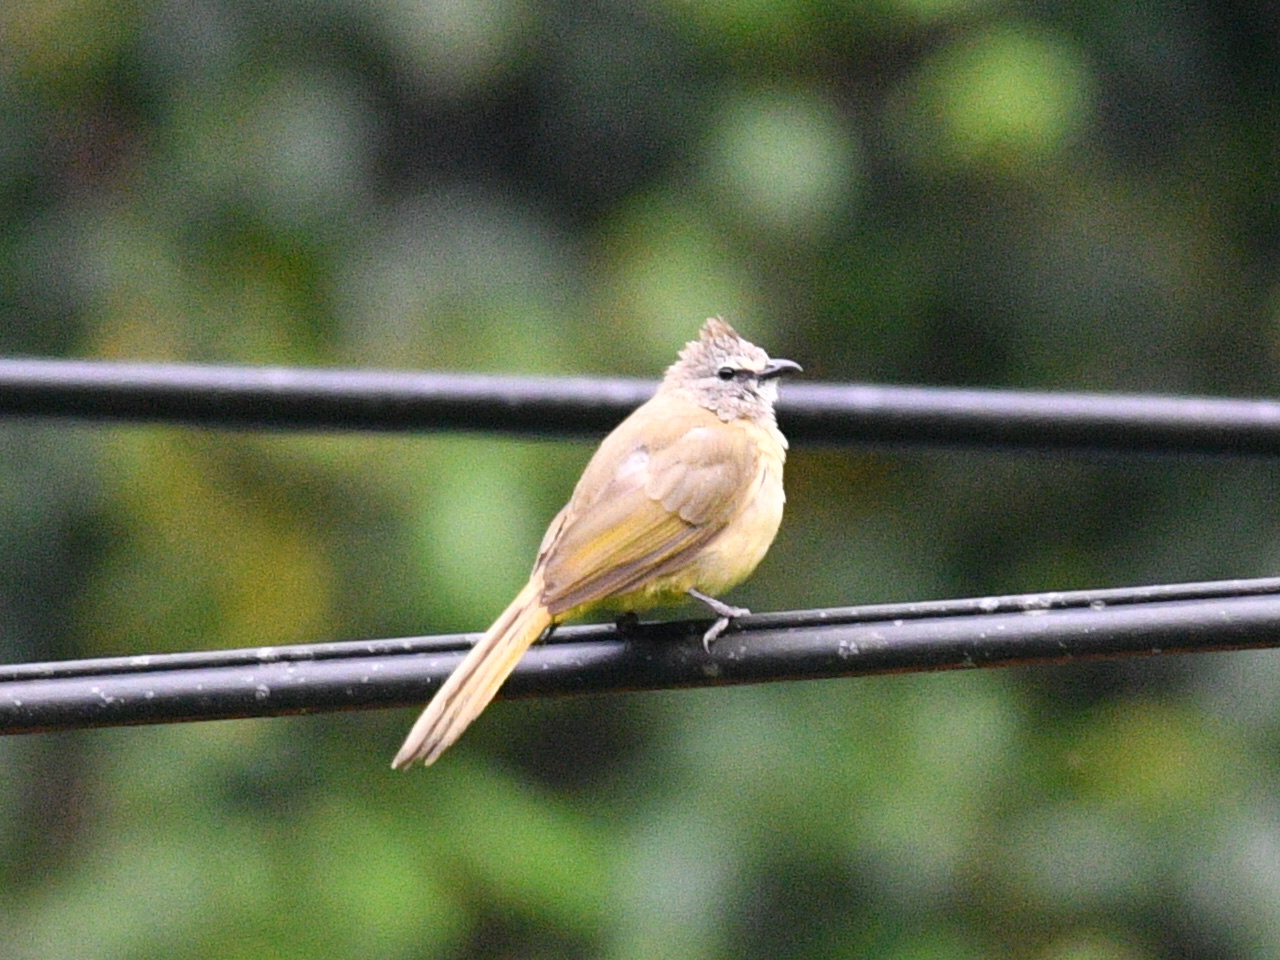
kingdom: Animalia
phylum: Chordata
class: Aves
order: Passeriformes
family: Pycnonotidae
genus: Pycnonotus
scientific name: Pycnonotus flavescens
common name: Flavescent bulbul
